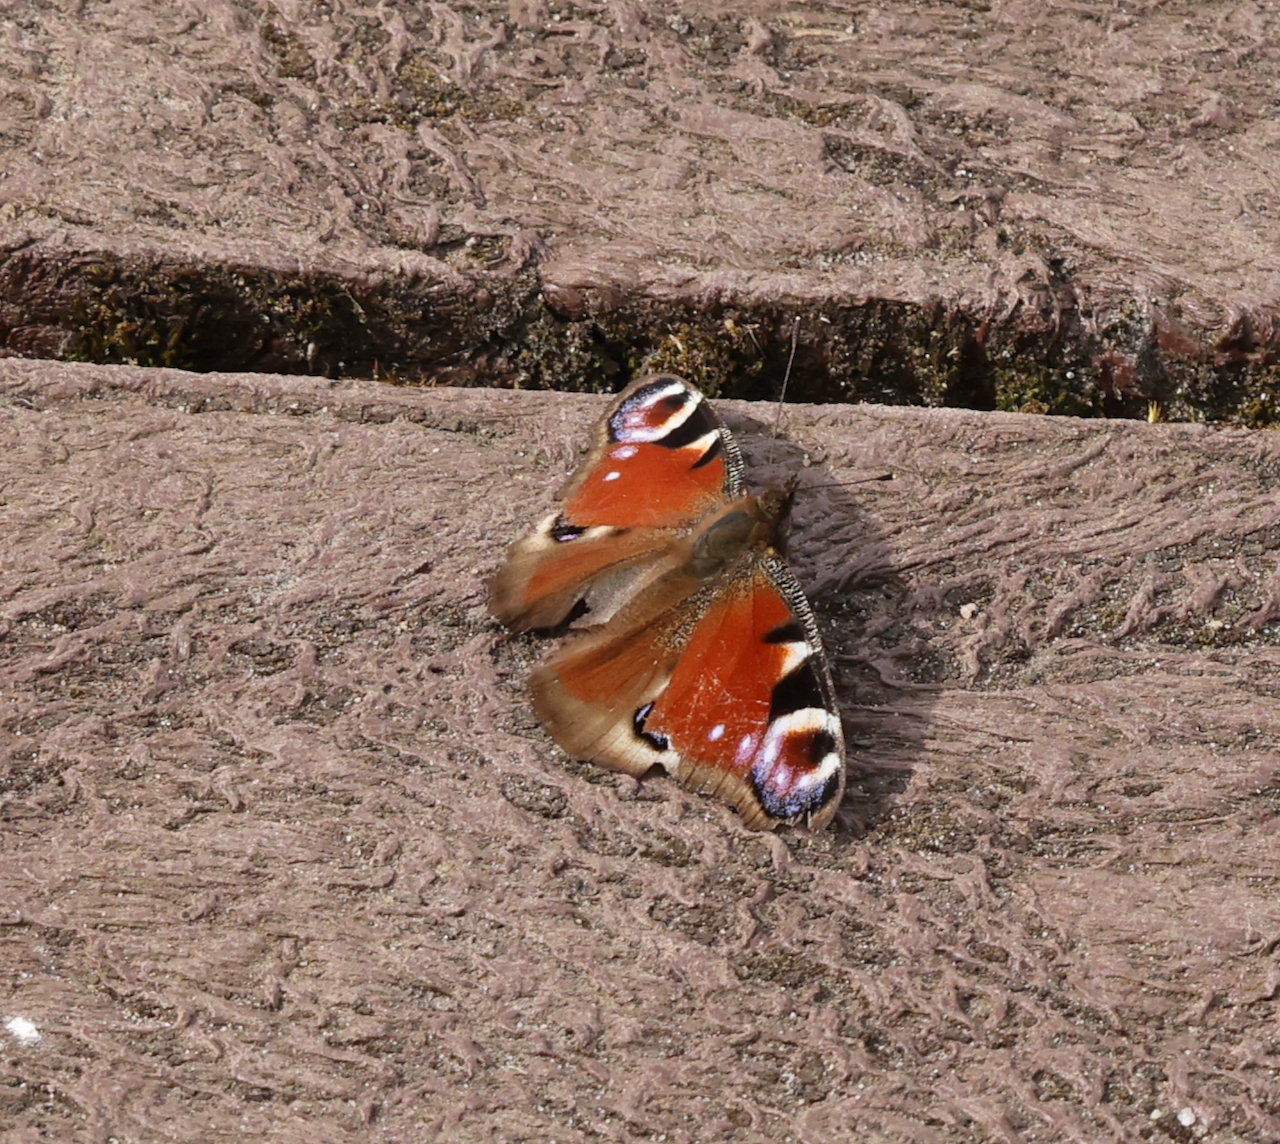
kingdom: Animalia
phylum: Arthropoda
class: Insecta
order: Lepidoptera
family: Nymphalidae
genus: Aglais
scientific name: Aglais io
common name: Peacock
